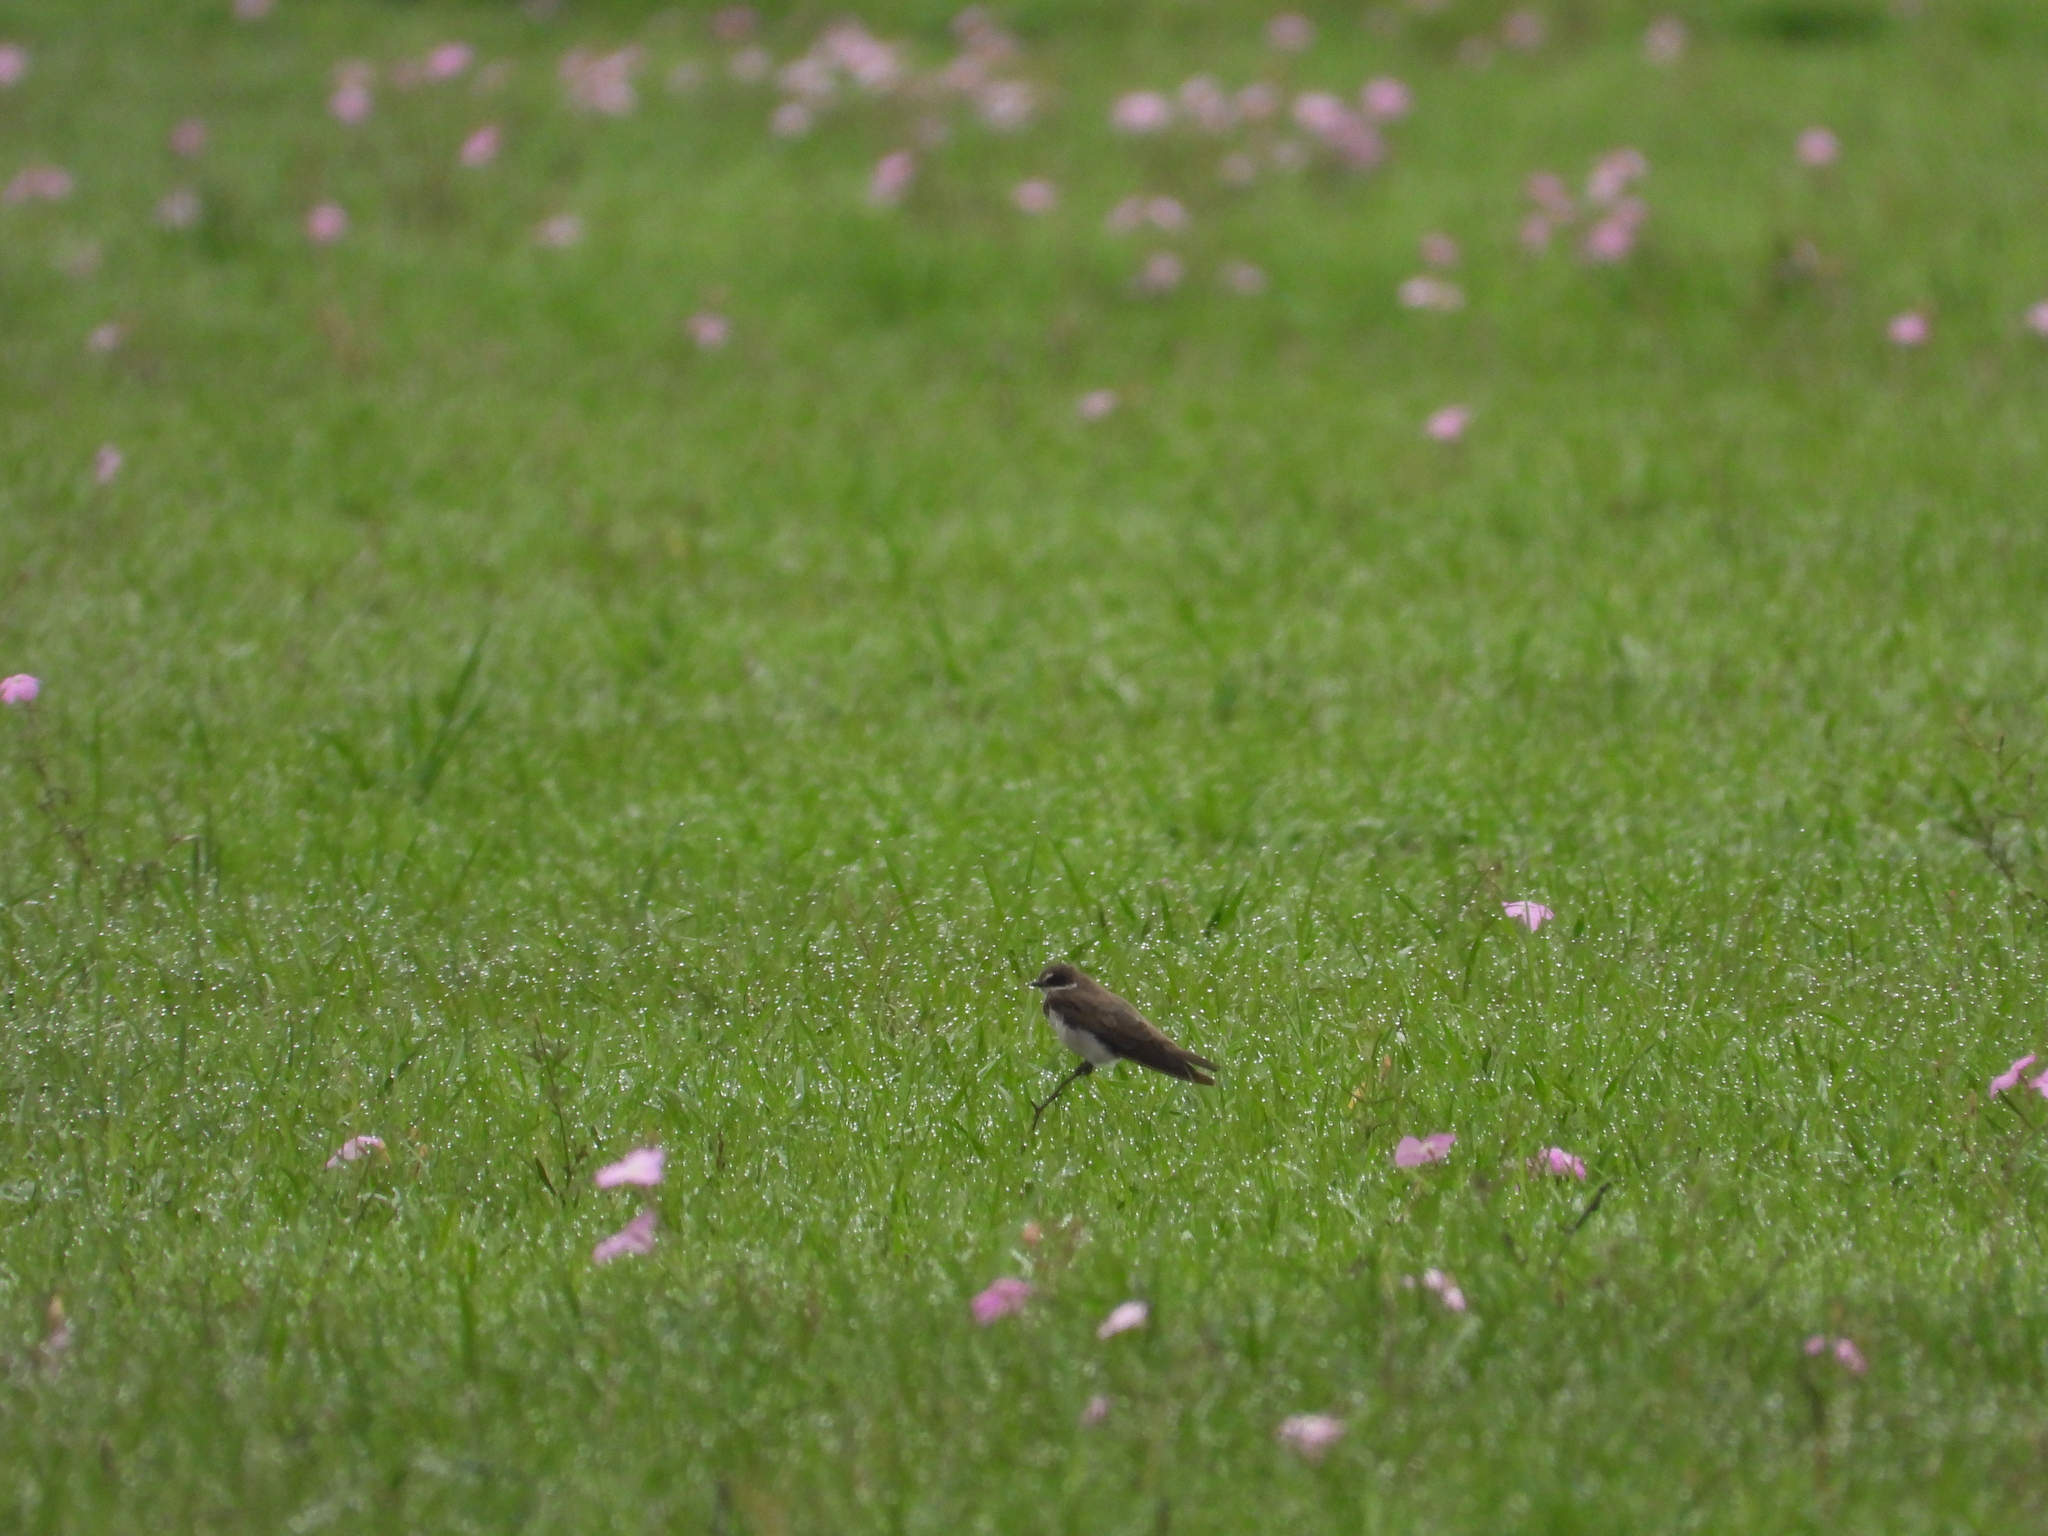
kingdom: Animalia
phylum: Chordata
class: Aves
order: Passeriformes
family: Hirundinidae
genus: Riparia
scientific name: Riparia cincta
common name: Banded martin
